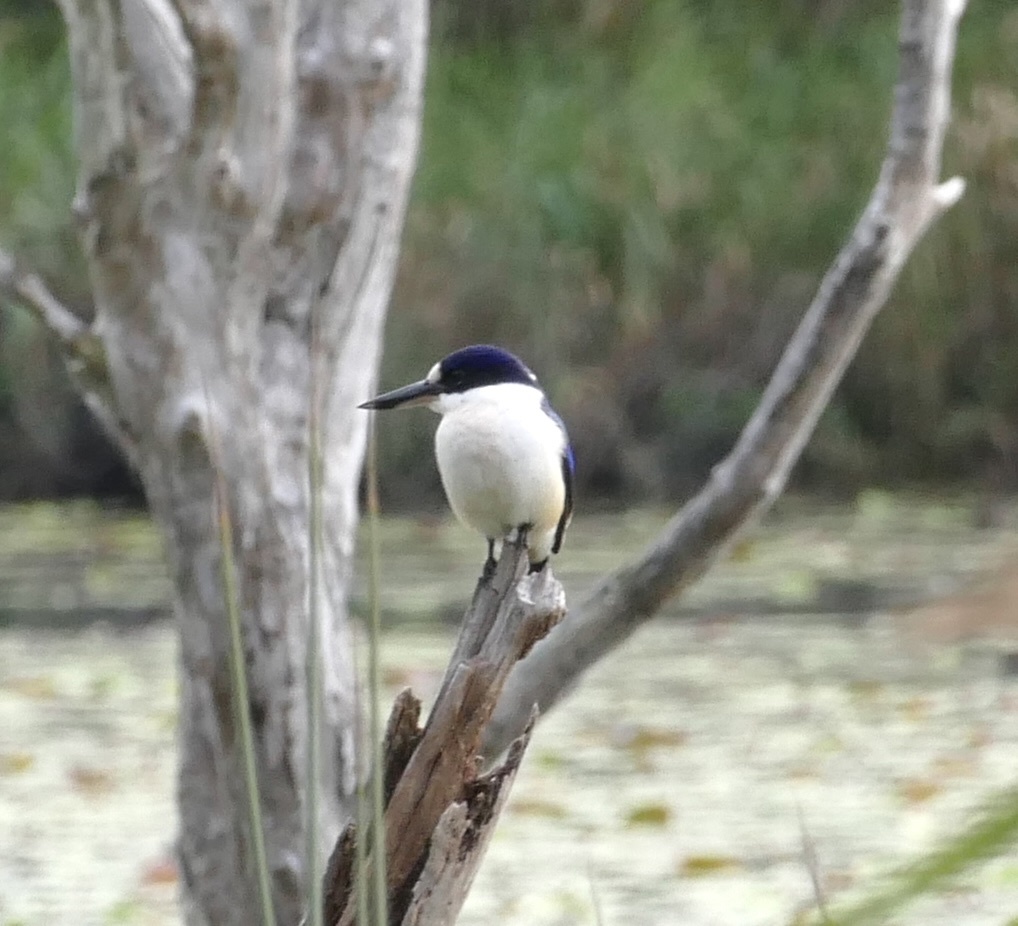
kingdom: Animalia
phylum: Chordata
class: Aves
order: Coraciiformes
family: Alcedinidae
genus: Todiramphus
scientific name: Todiramphus macleayii
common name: Forest kingfisher
